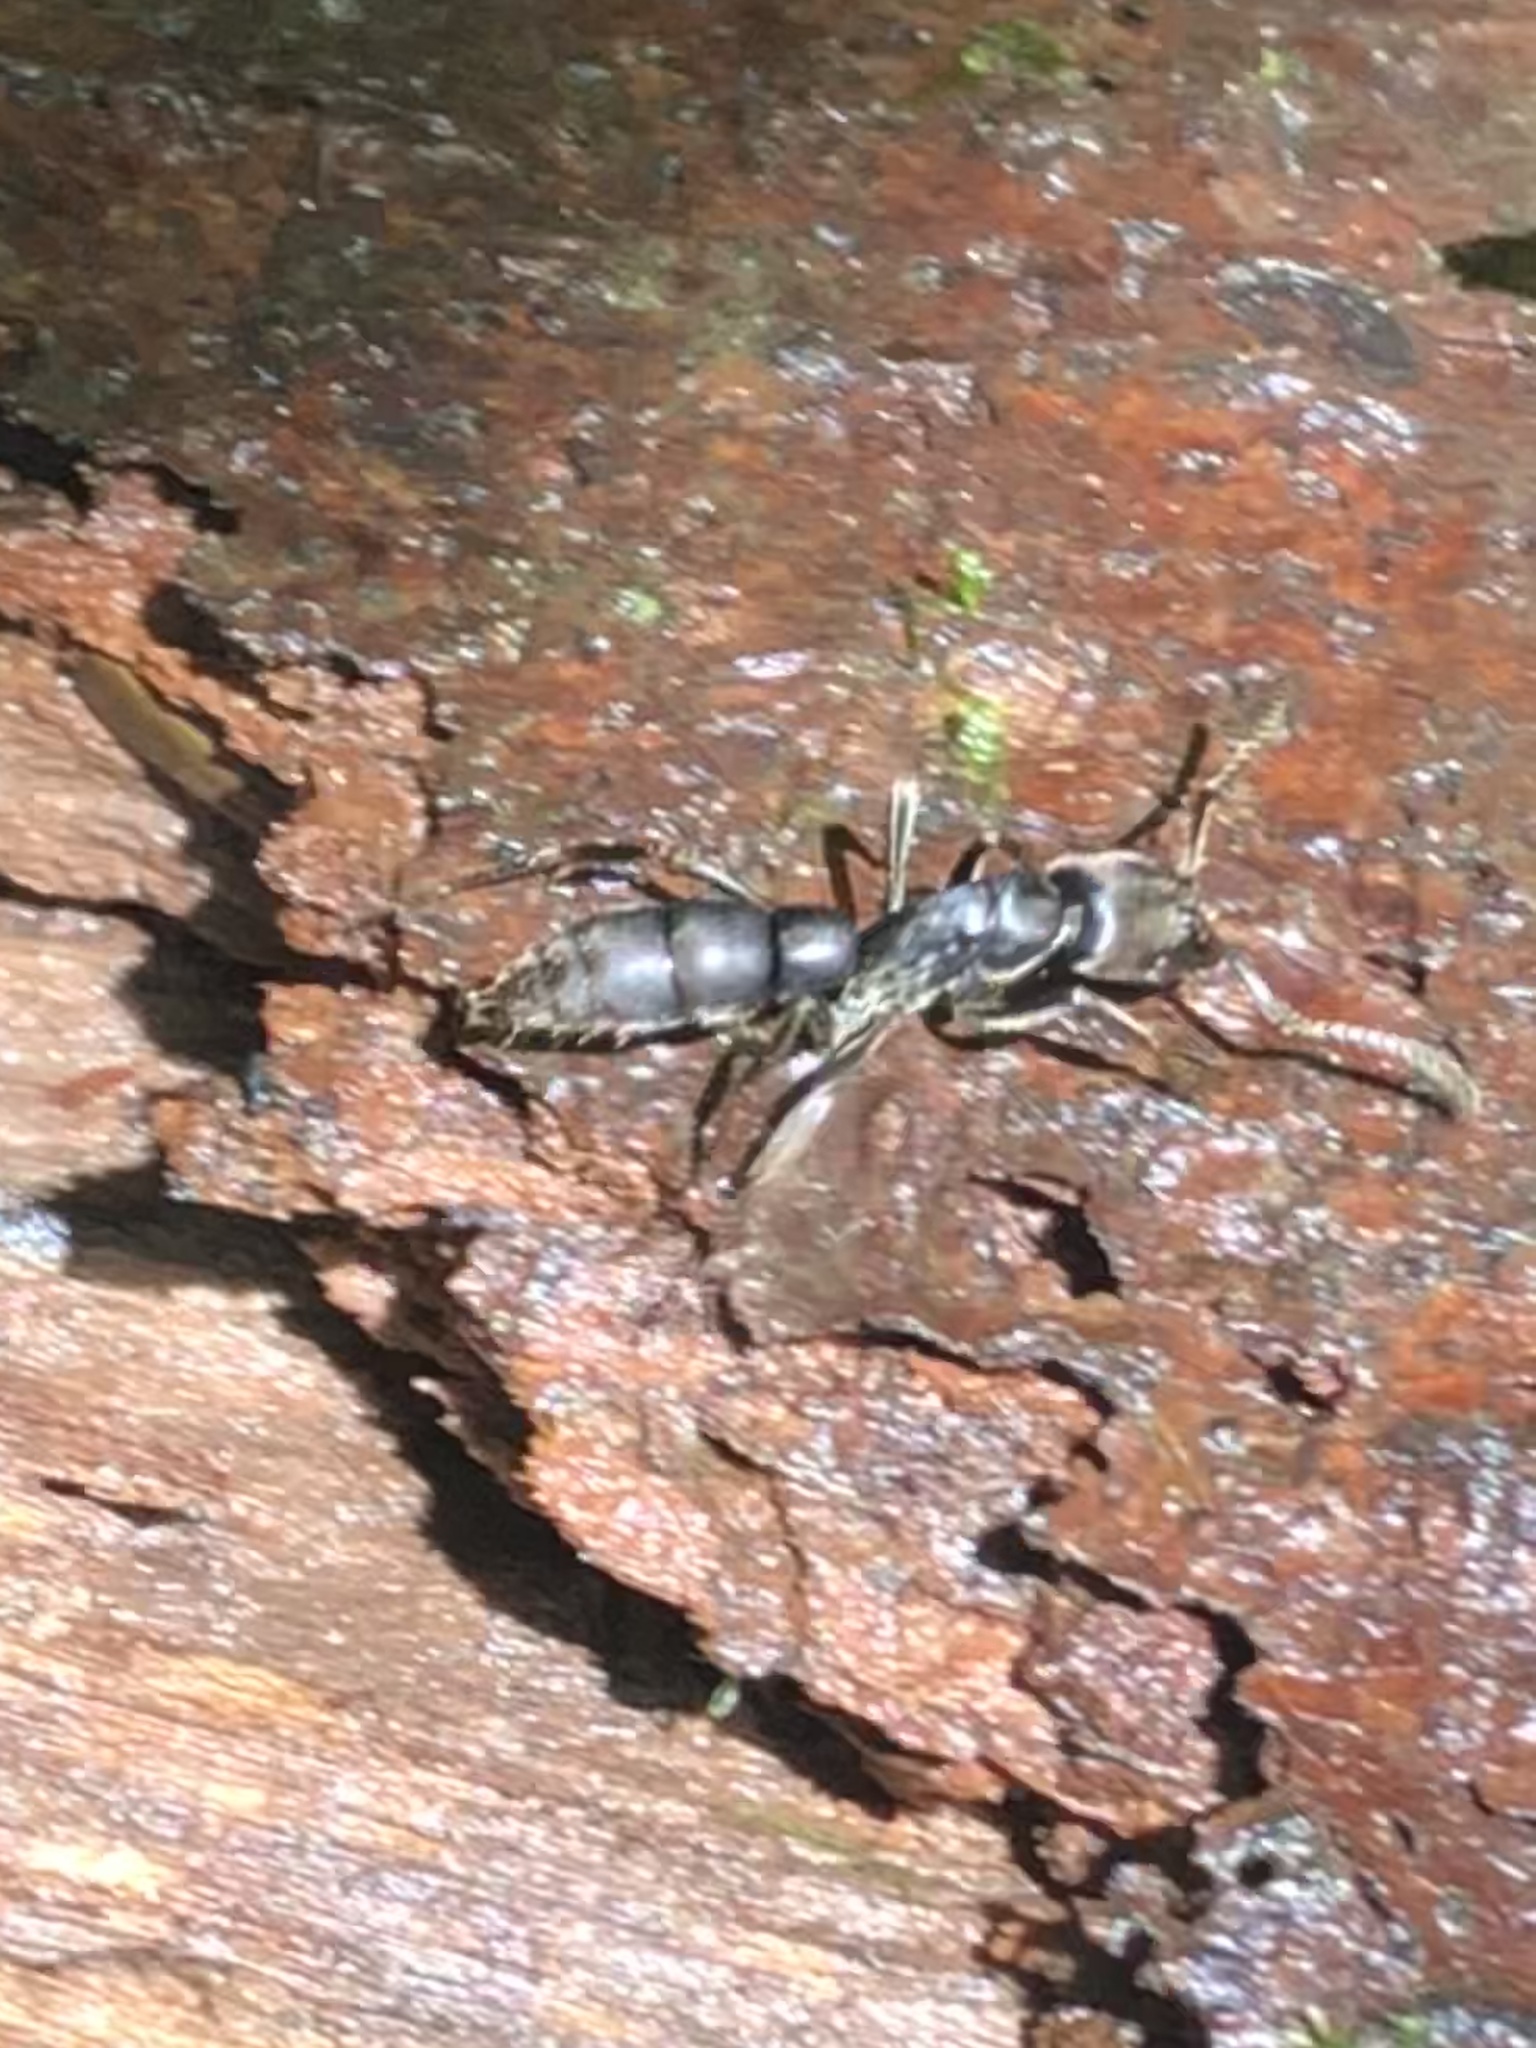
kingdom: Animalia
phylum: Arthropoda
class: Insecta
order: Hymenoptera
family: Formicidae
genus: Pachycondyla
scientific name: Pachycondyla crassinoda
